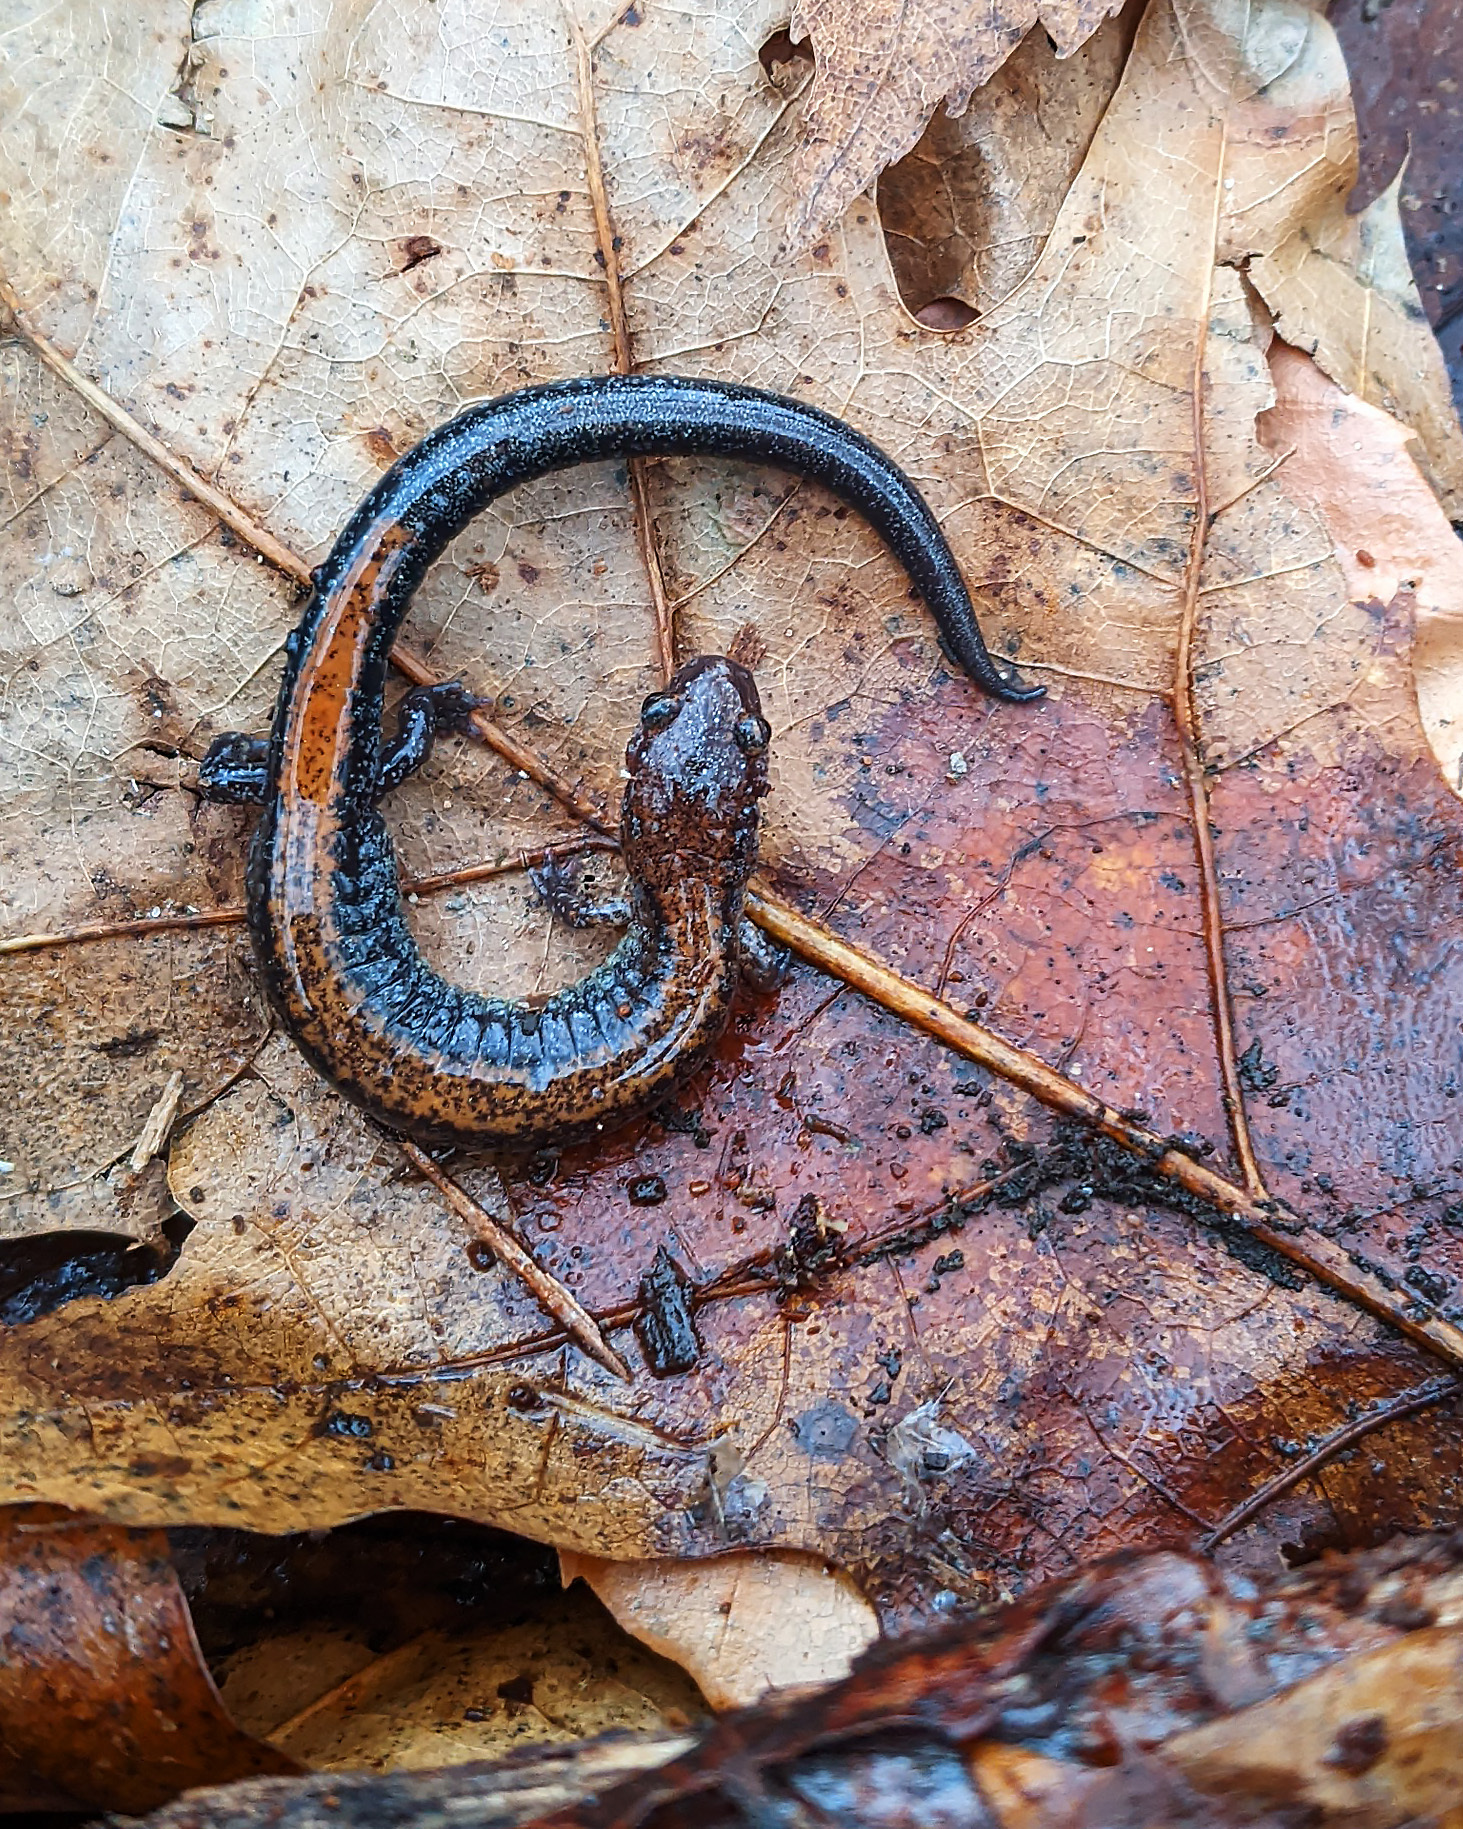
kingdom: Animalia
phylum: Chordata
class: Amphibia
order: Caudata
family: Plethodontidae
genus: Plethodon
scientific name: Plethodon cinereus
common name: Redback salamander
